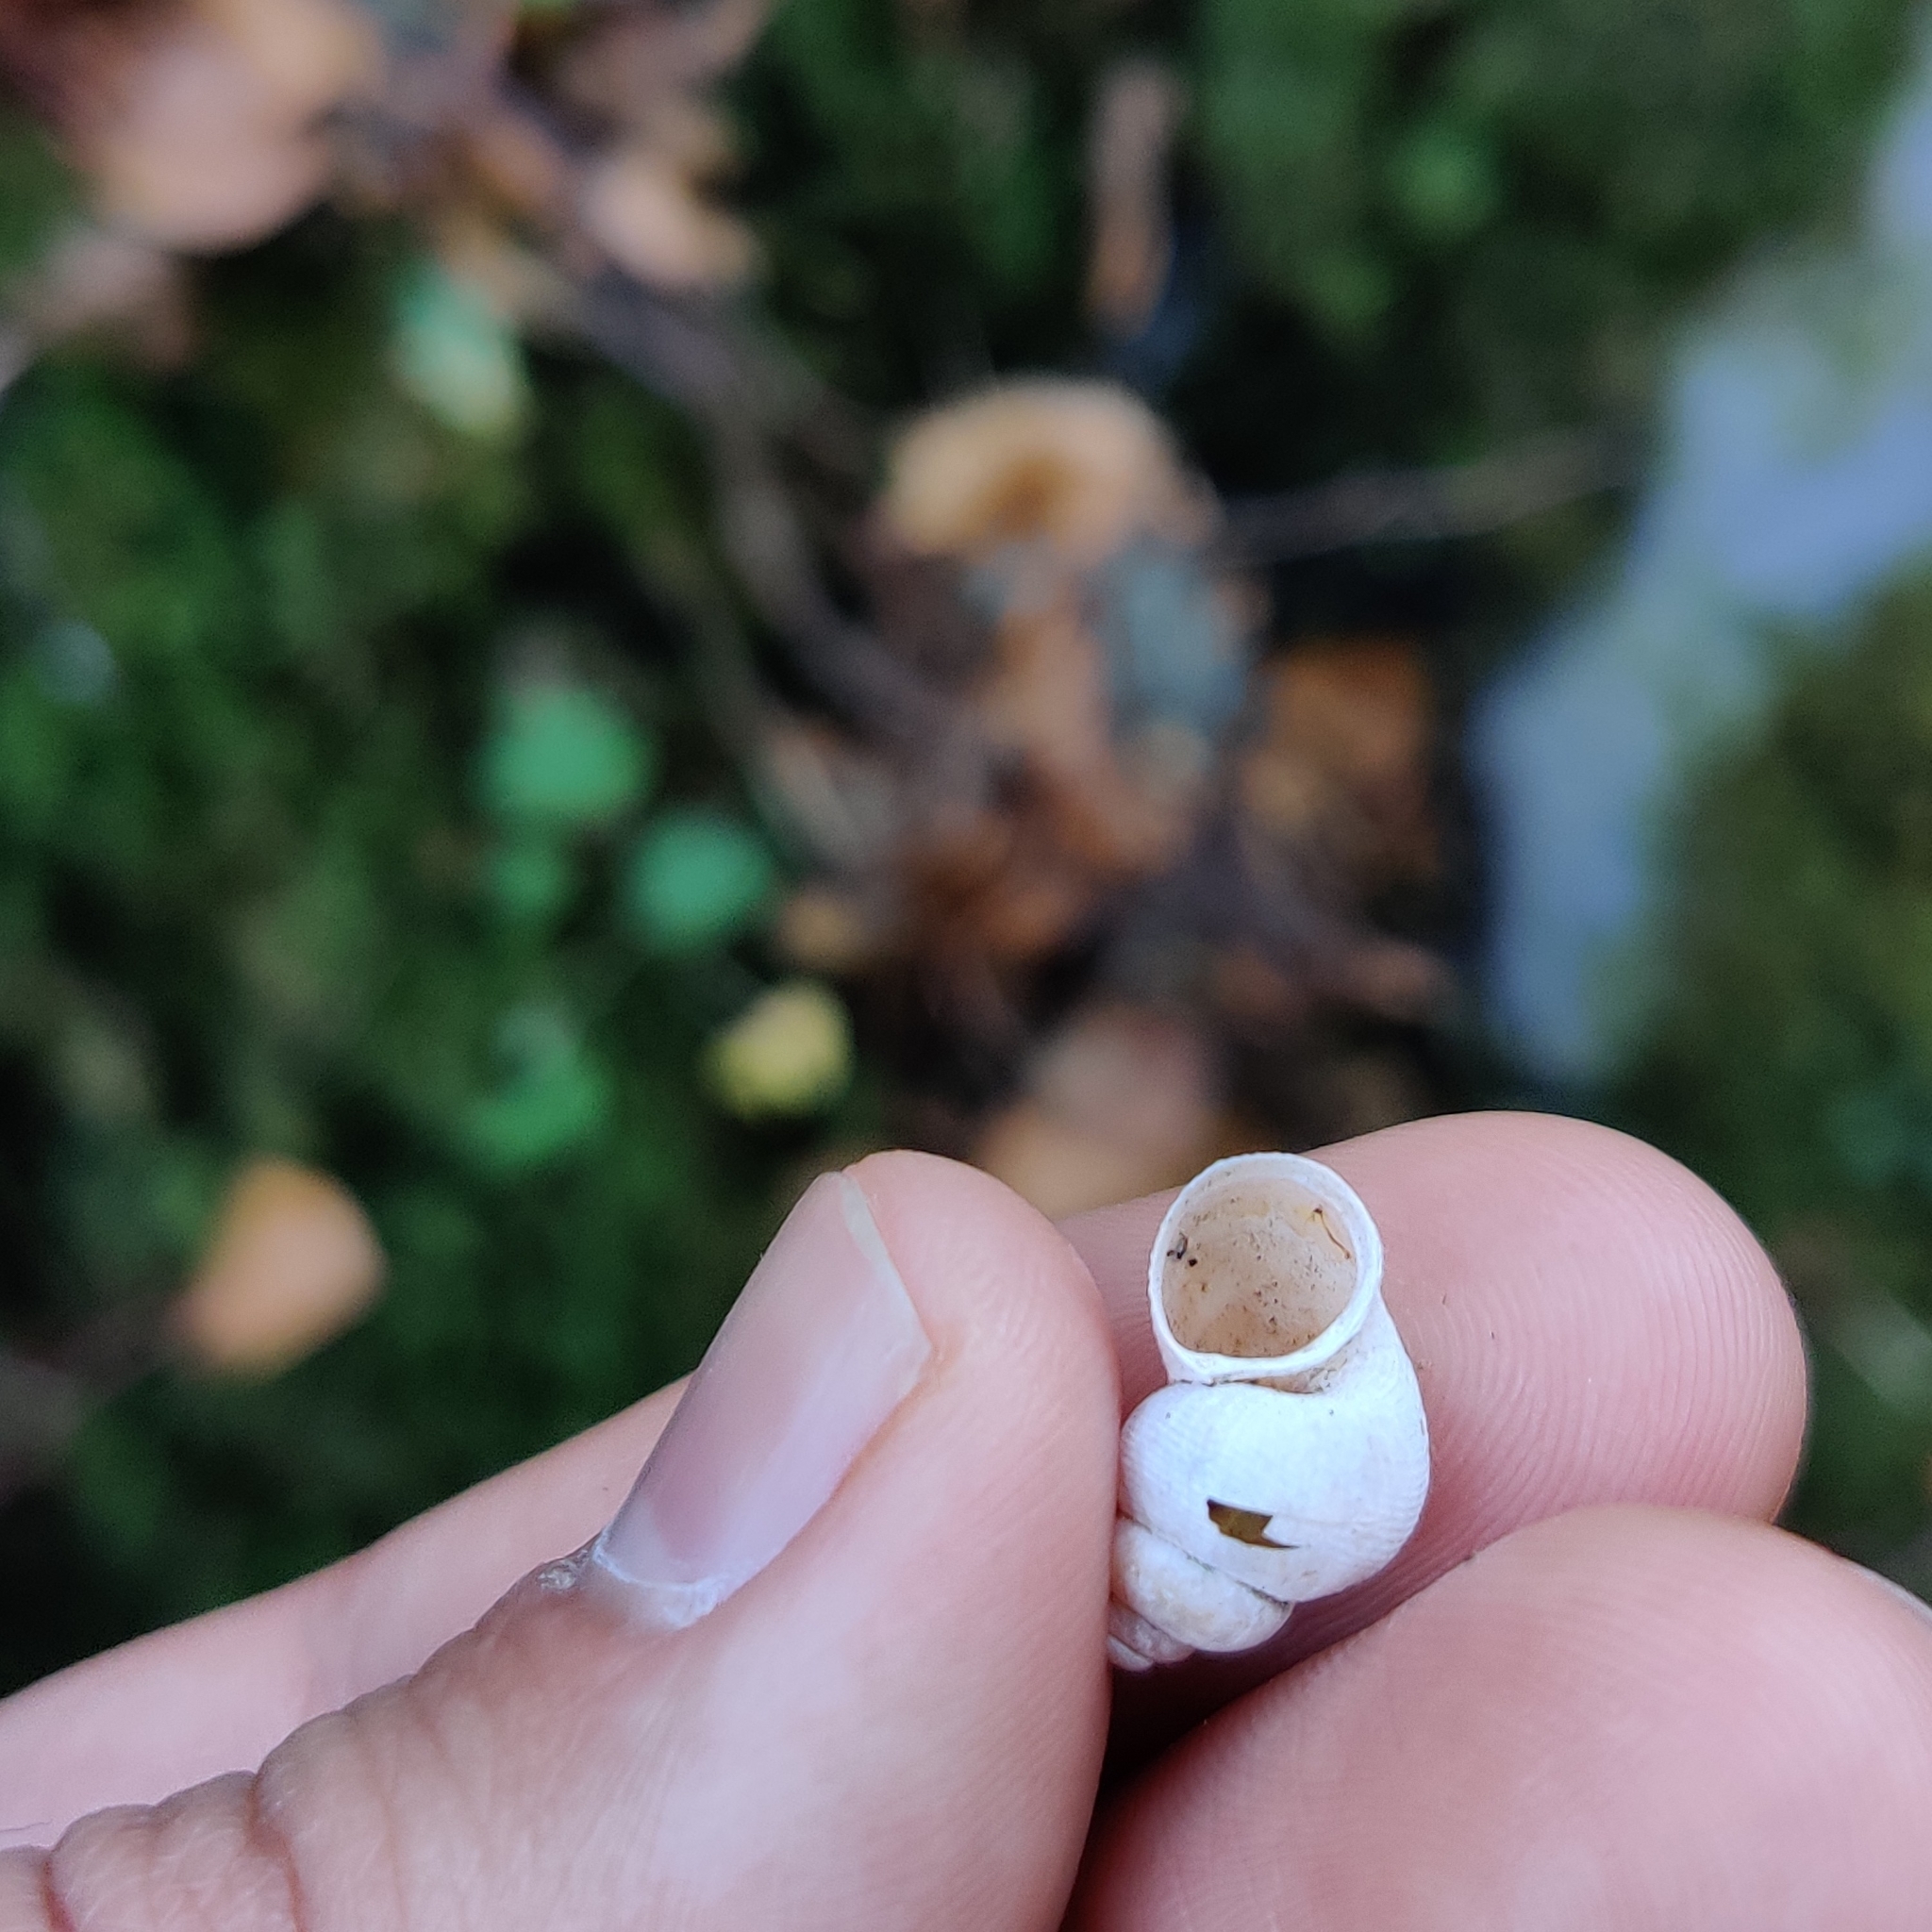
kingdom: Animalia
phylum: Mollusca
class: Gastropoda
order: Littorinimorpha
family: Pomatiidae
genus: Pomatias
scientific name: Pomatias elegans
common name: Red-mouthed snail
